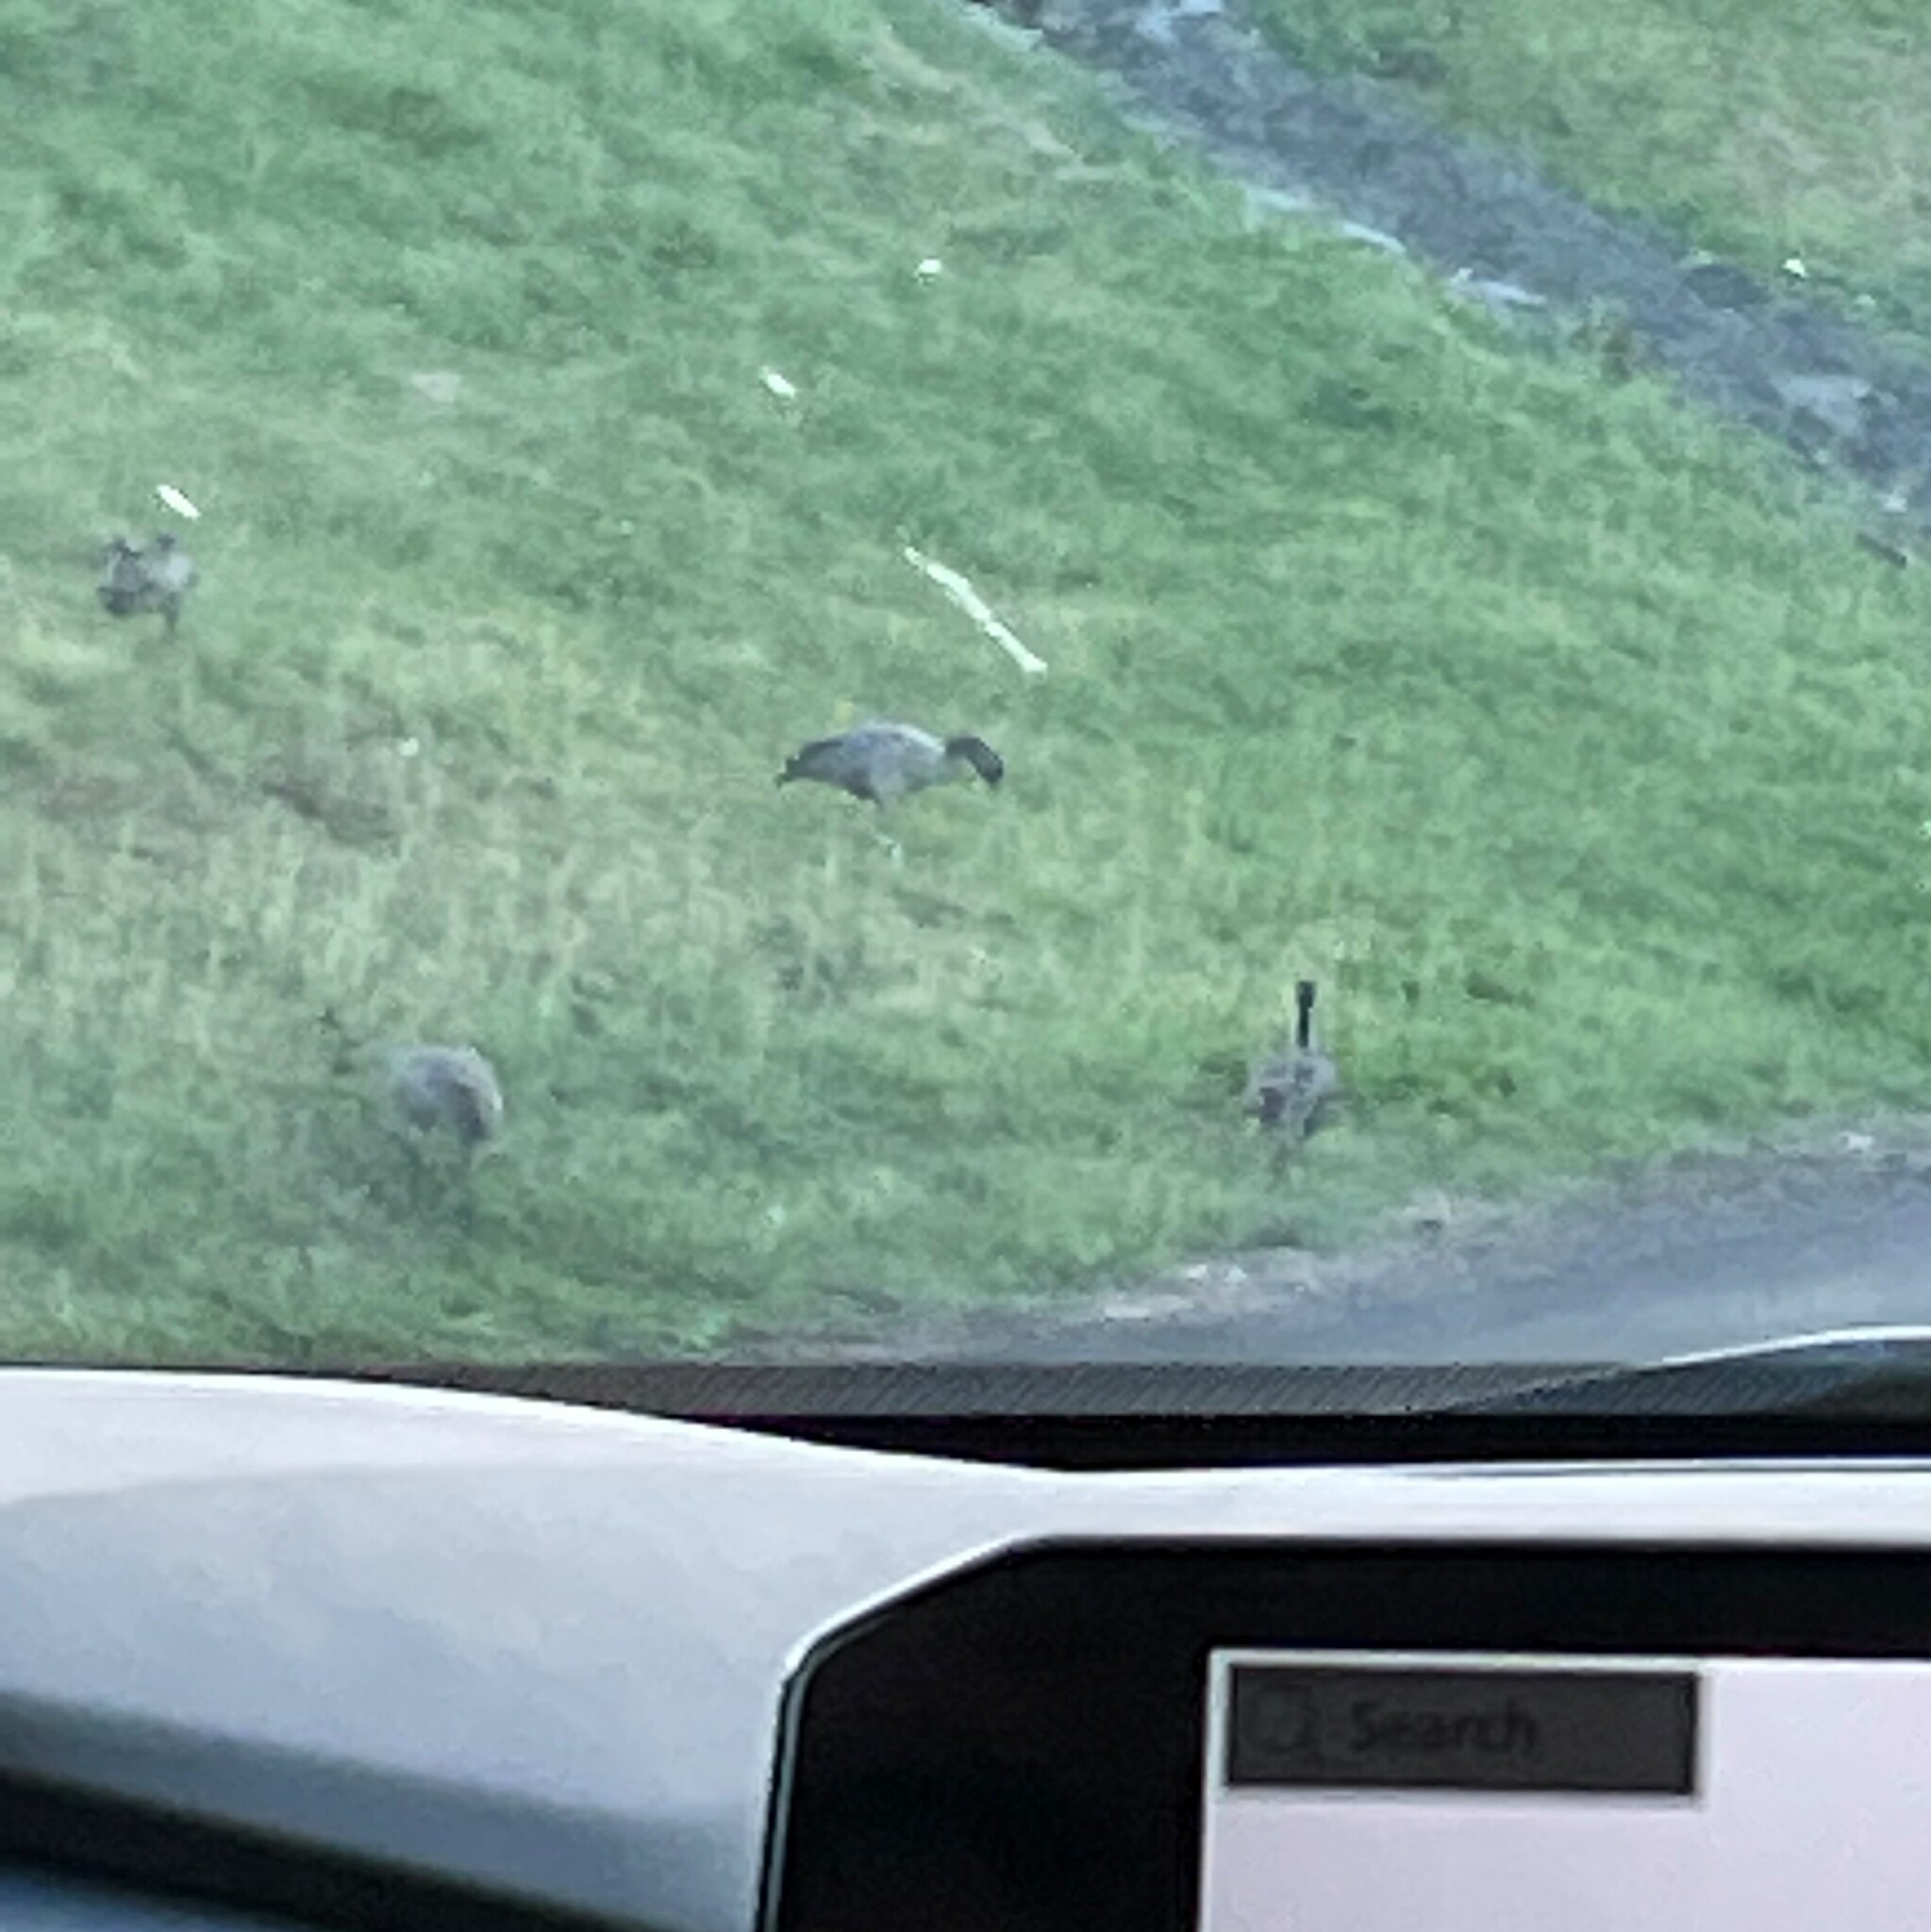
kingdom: Animalia
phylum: Chordata
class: Aves
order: Anseriformes
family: Anatidae
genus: Branta
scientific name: Branta sandvicensis
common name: Nene
